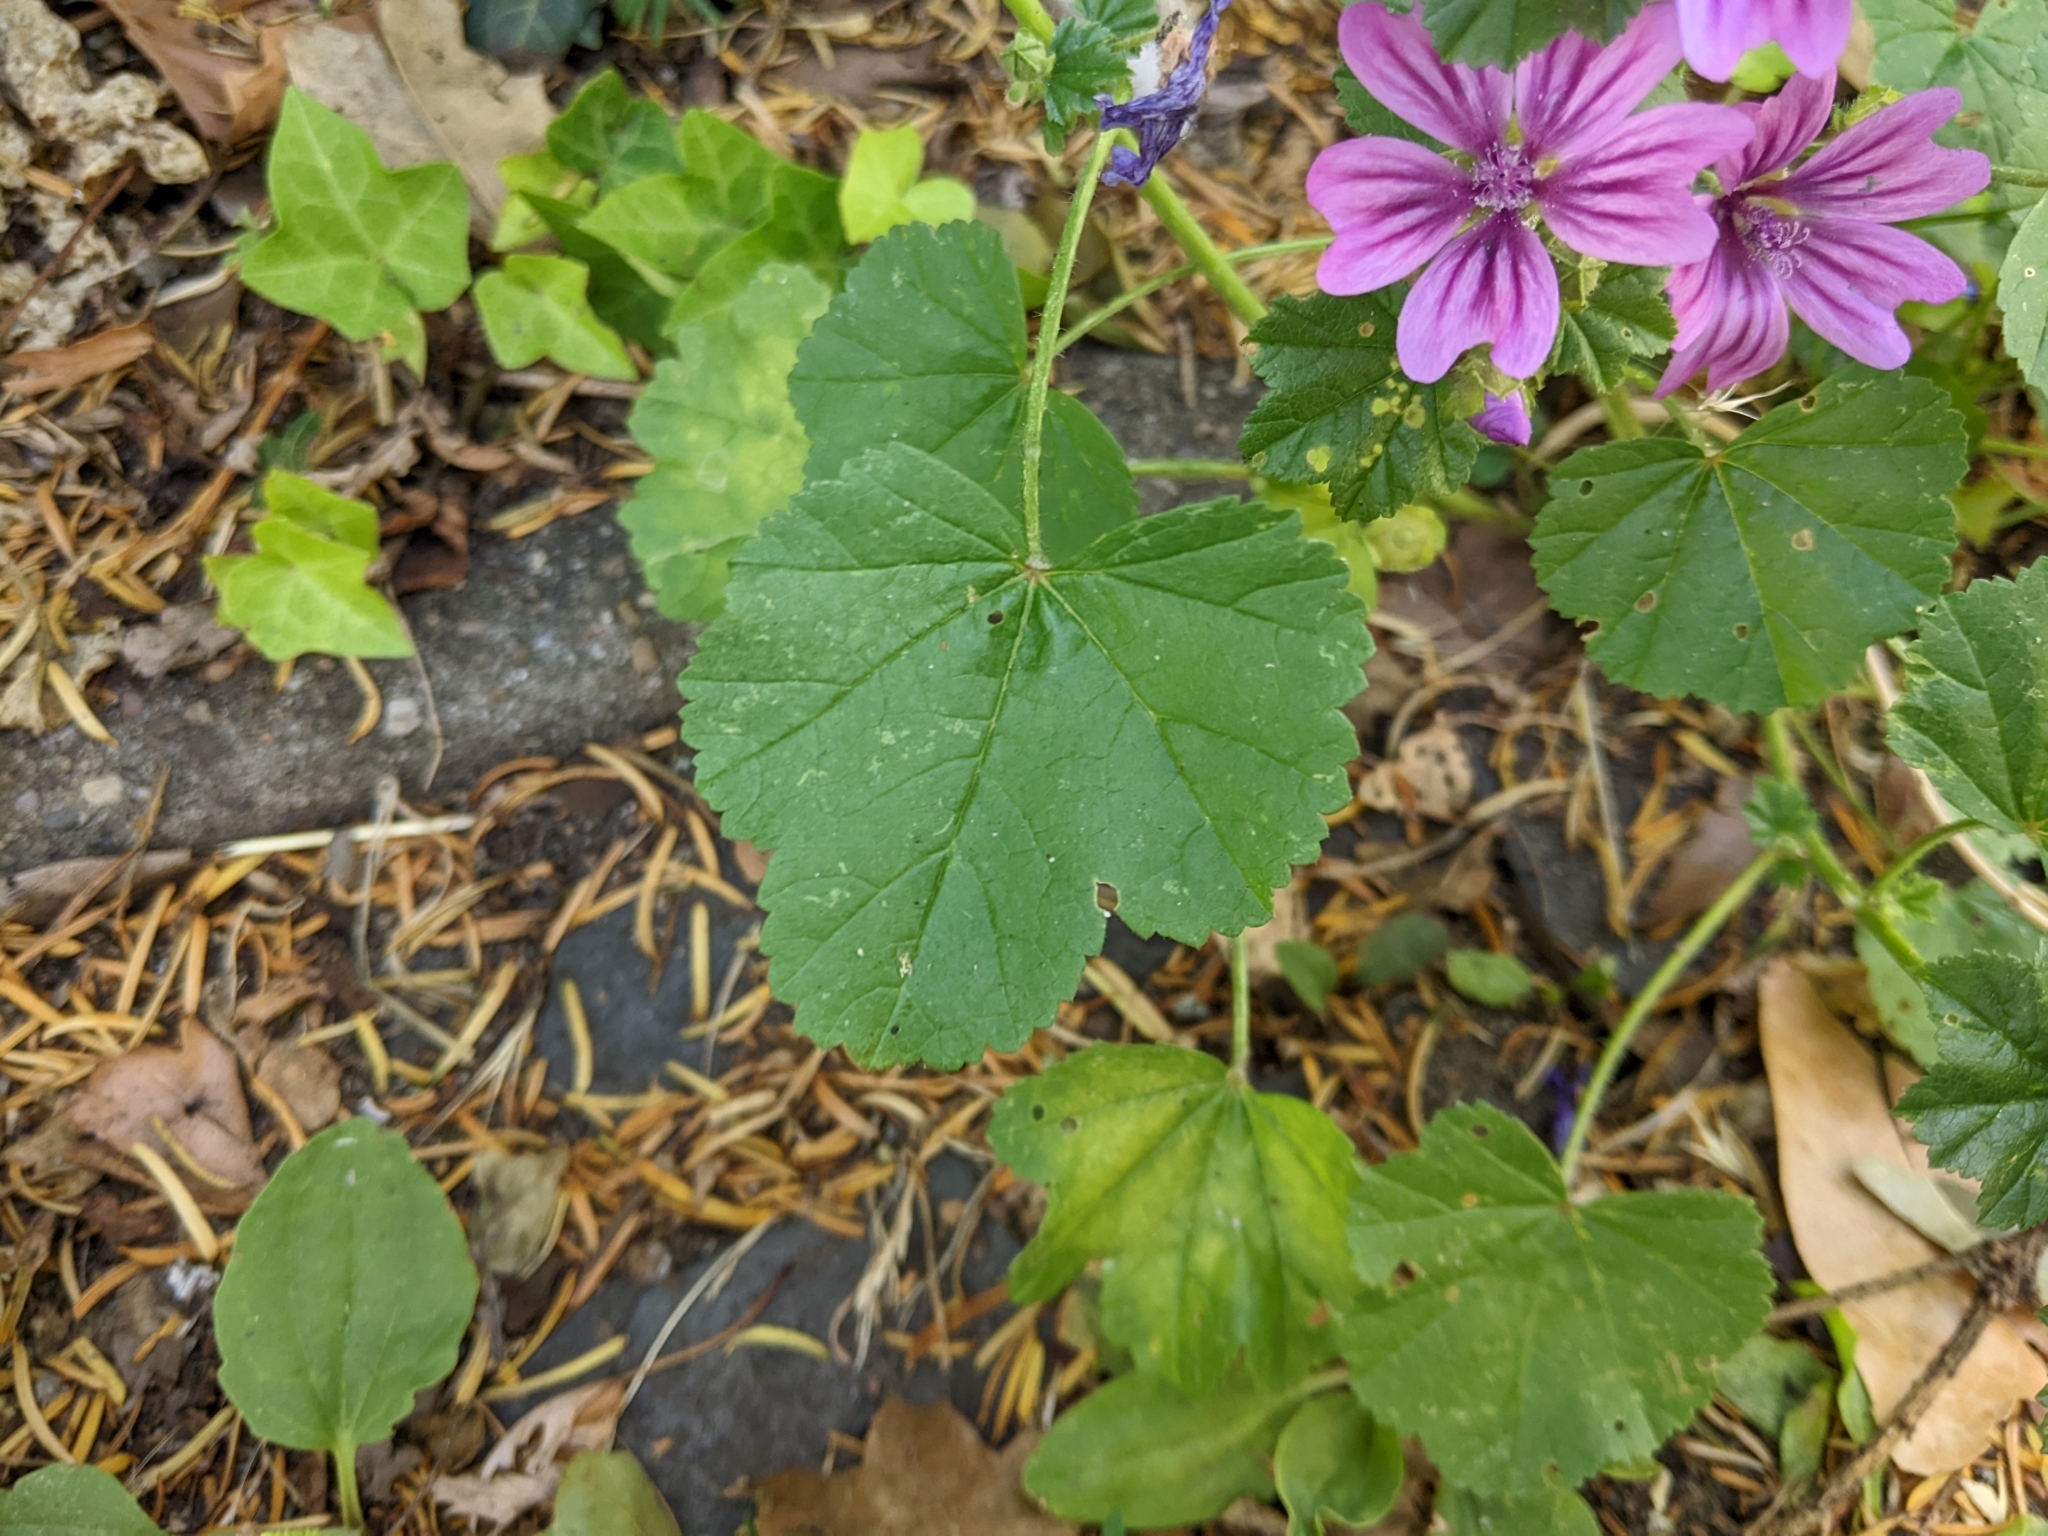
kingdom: Plantae
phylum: Tracheophyta
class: Magnoliopsida
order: Malvales
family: Malvaceae
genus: Malva
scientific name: Malva sylvestris
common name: Common mallow
